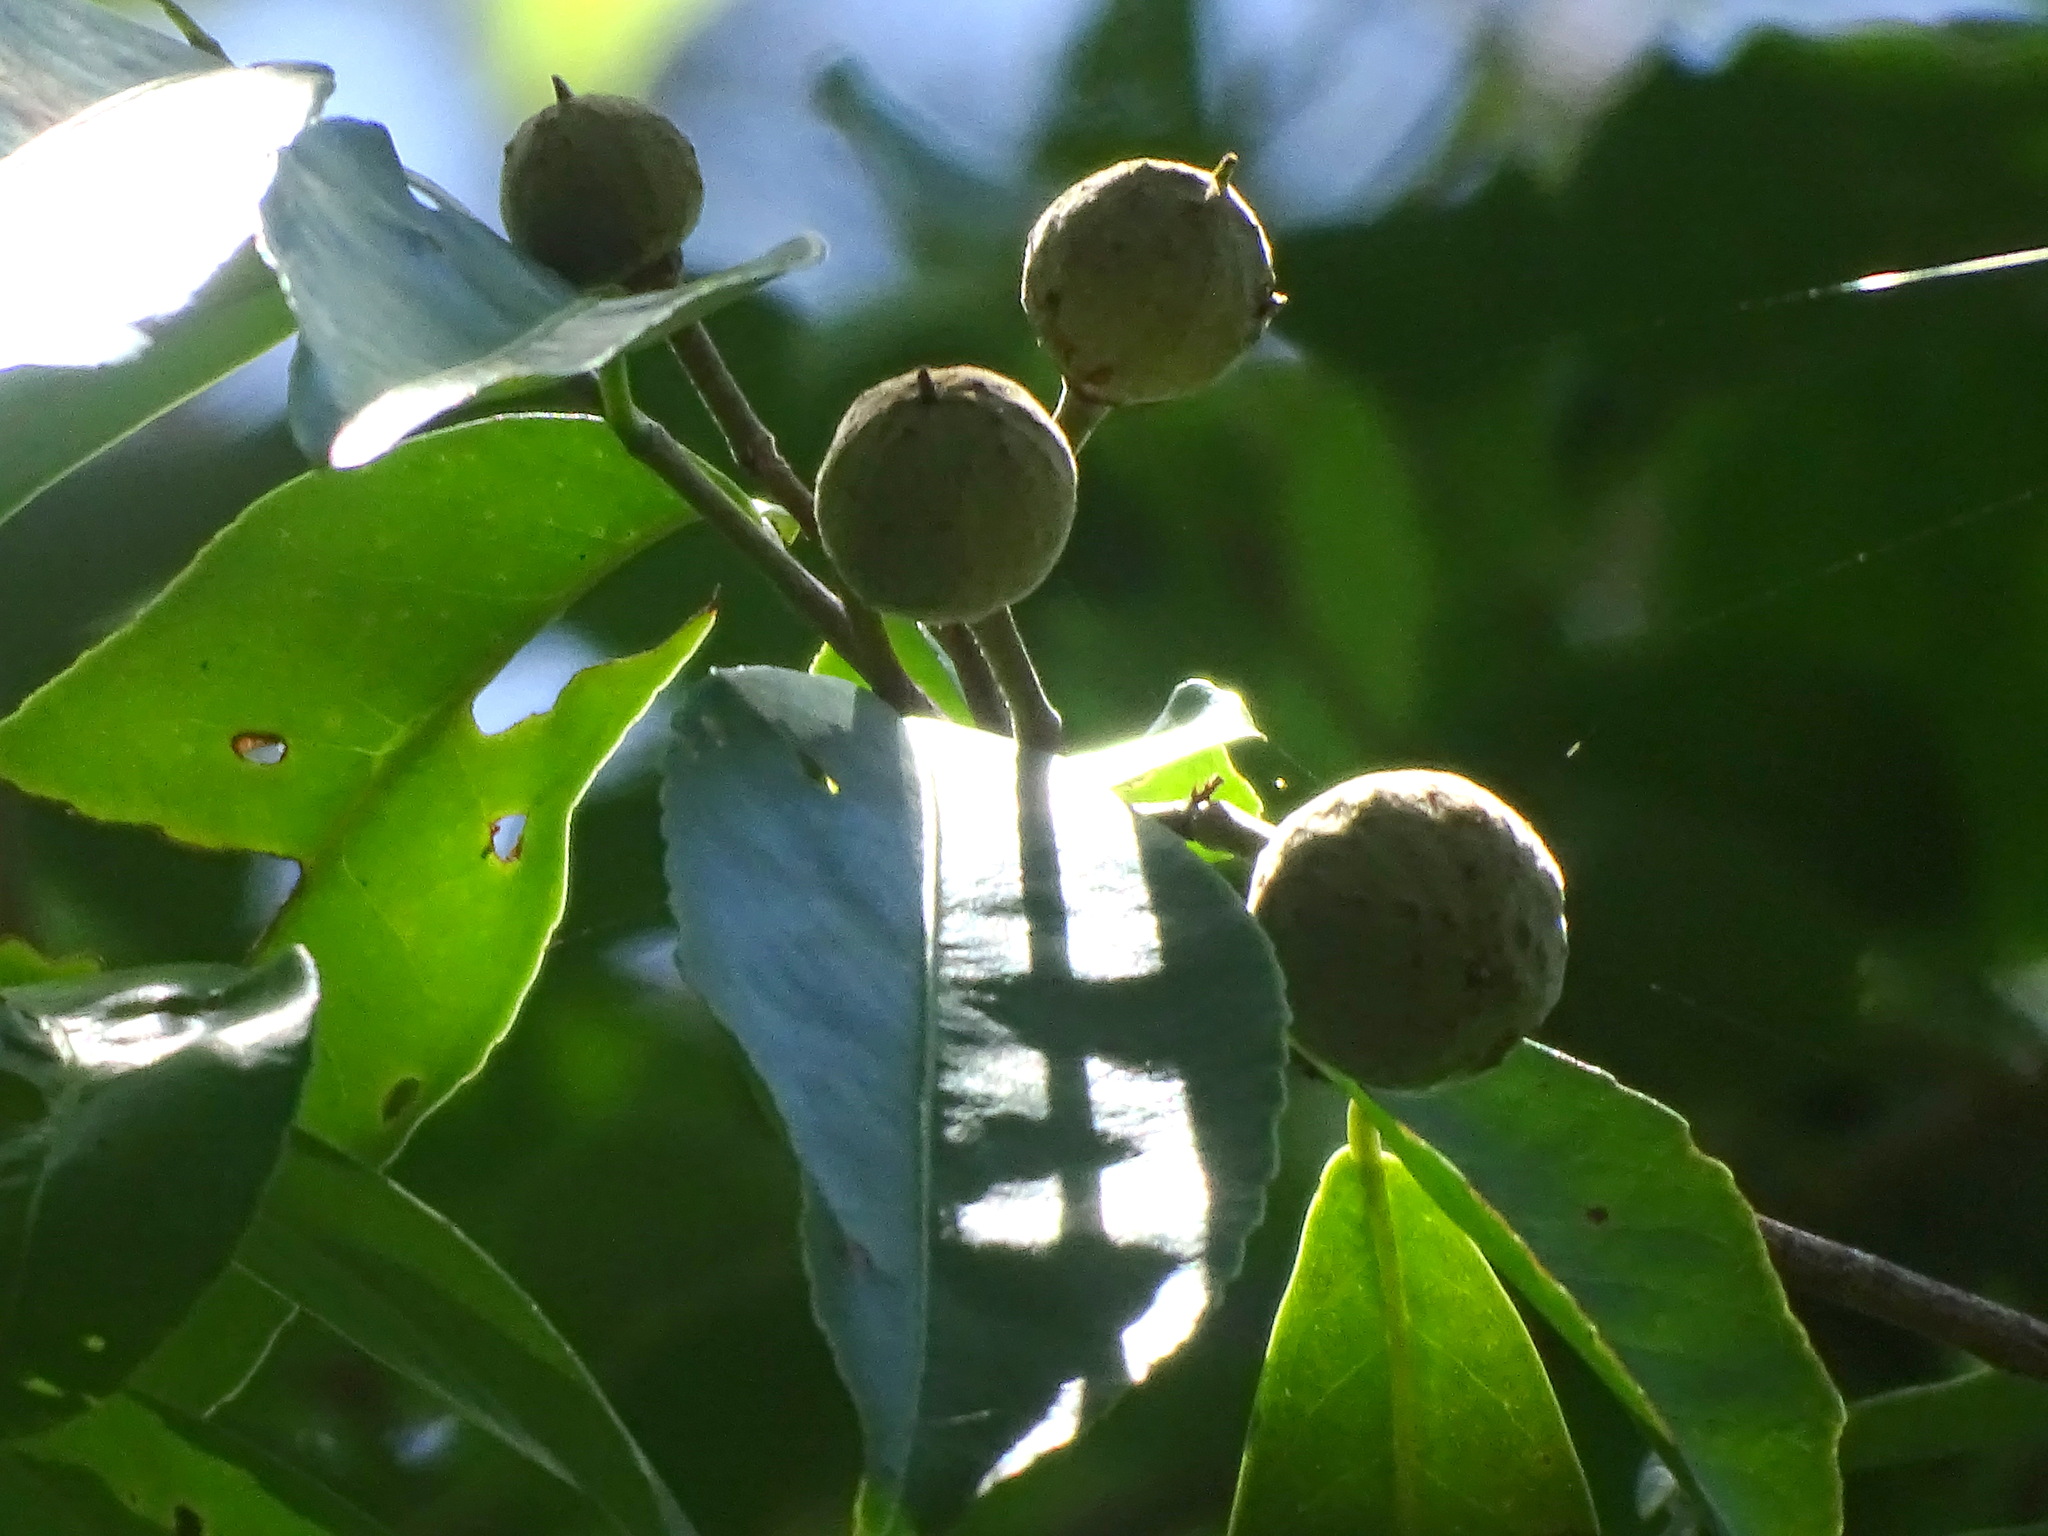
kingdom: Plantae
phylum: Tracheophyta
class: Magnoliopsida
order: Malpighiales
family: Salicaceae
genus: Casearia
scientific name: Casearia thamnia
